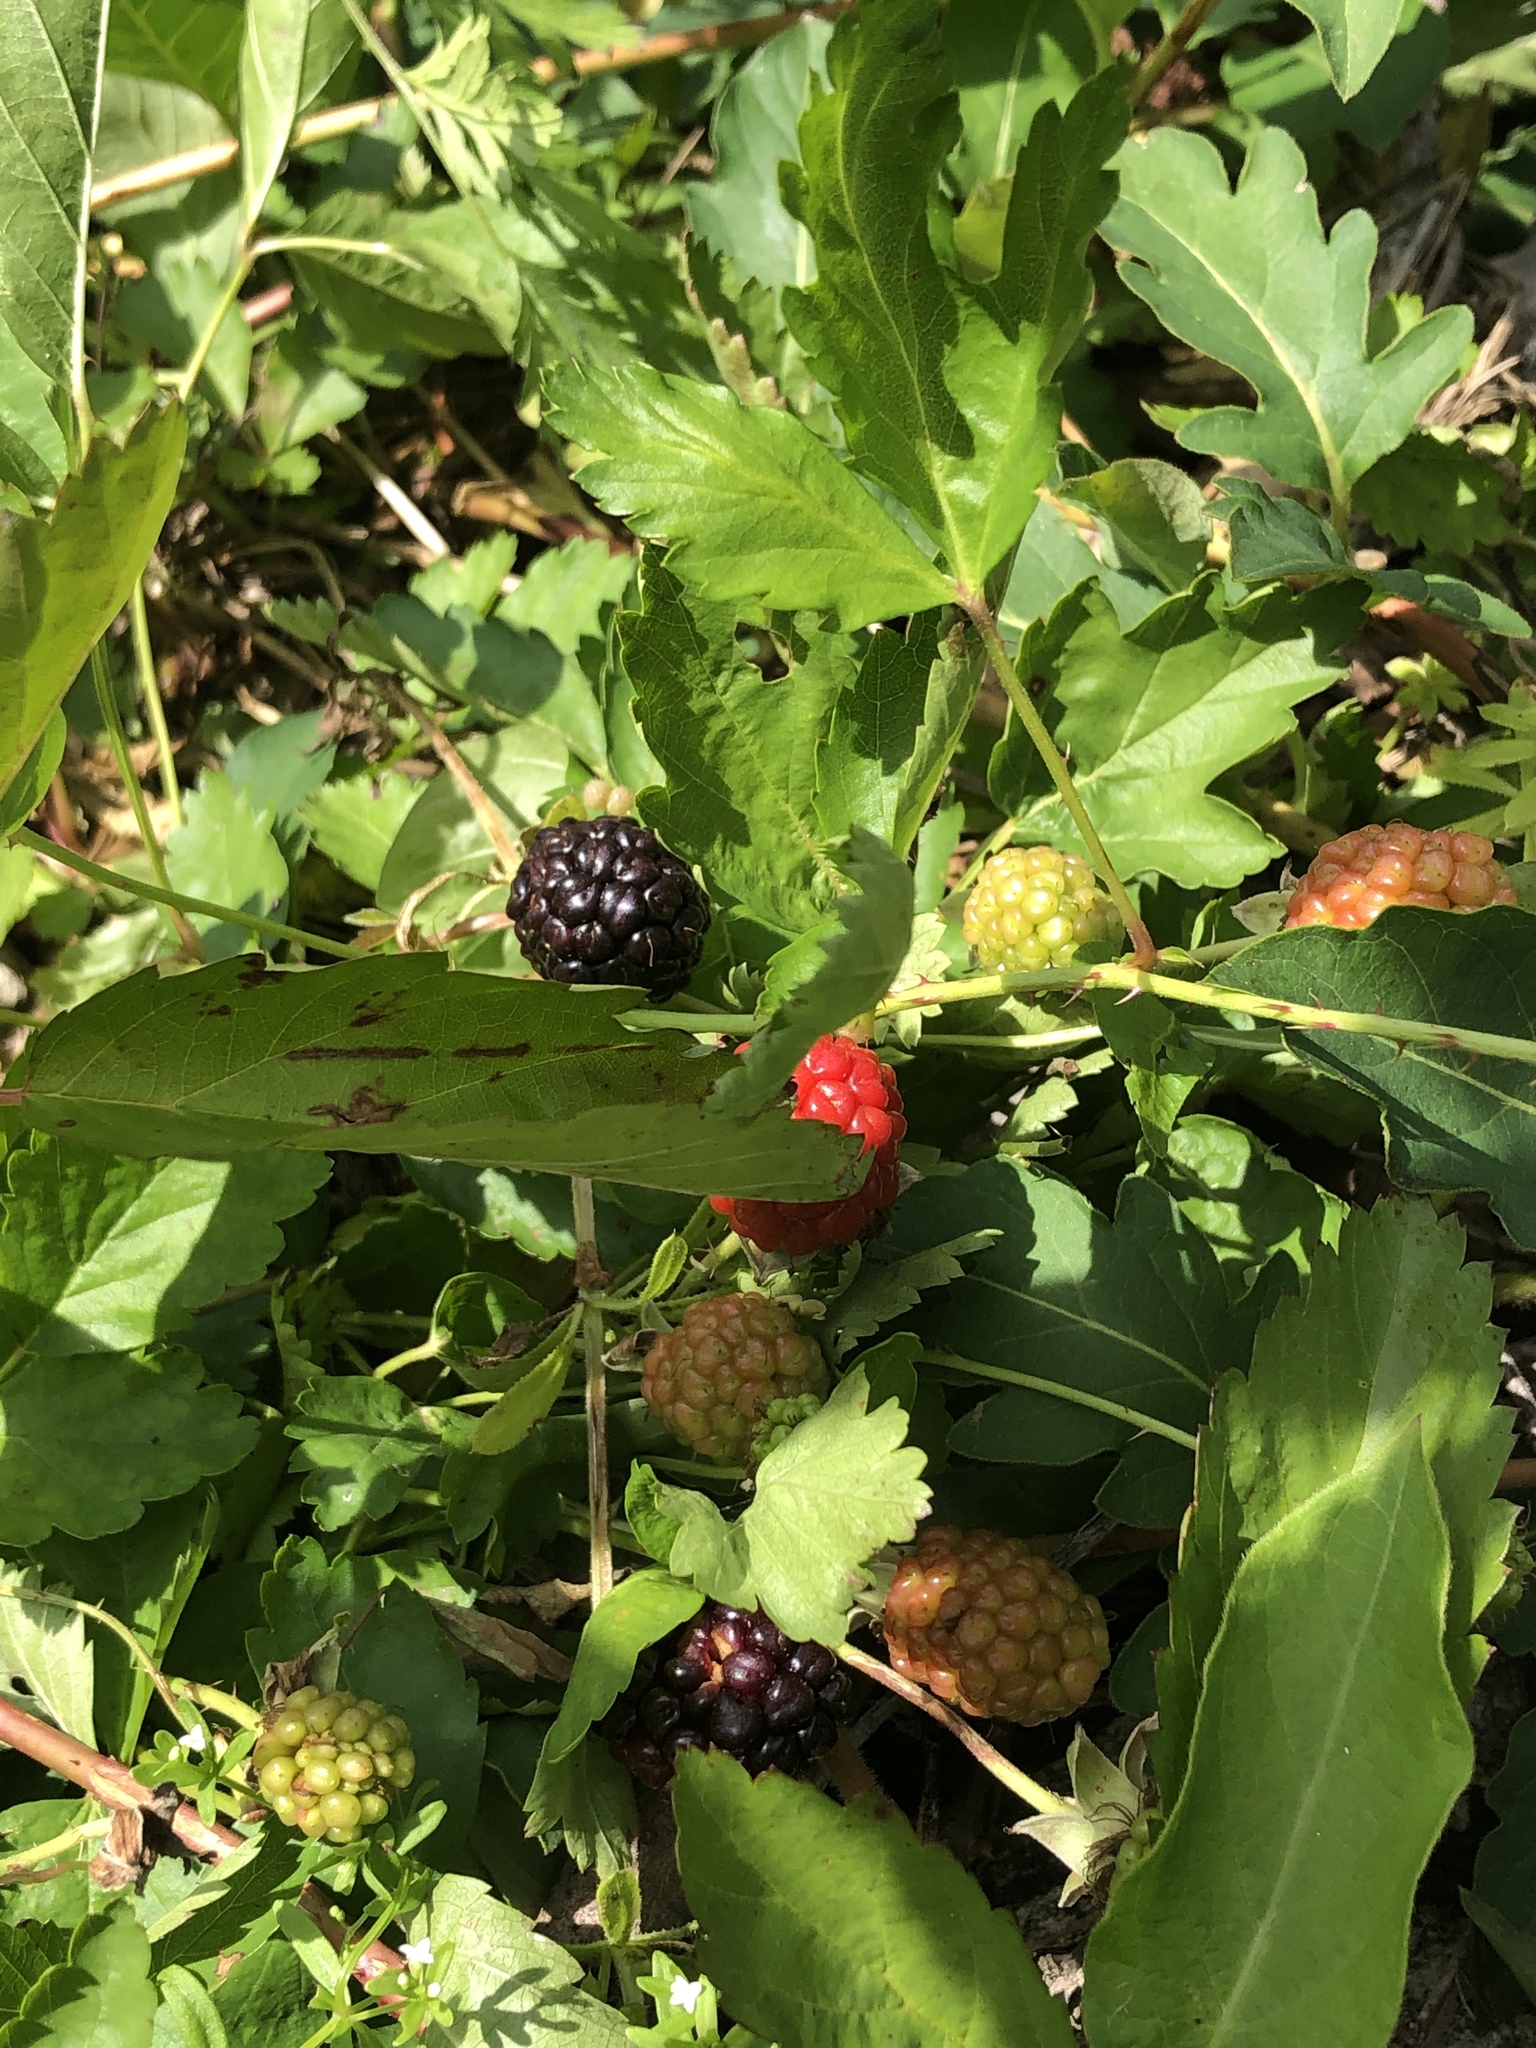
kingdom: Plantae
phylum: Tracheophyta
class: Magnoliopsida
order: Rosales
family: Rosaceae
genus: Rubus
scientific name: Rubus trivialis
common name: Southern dewberry
